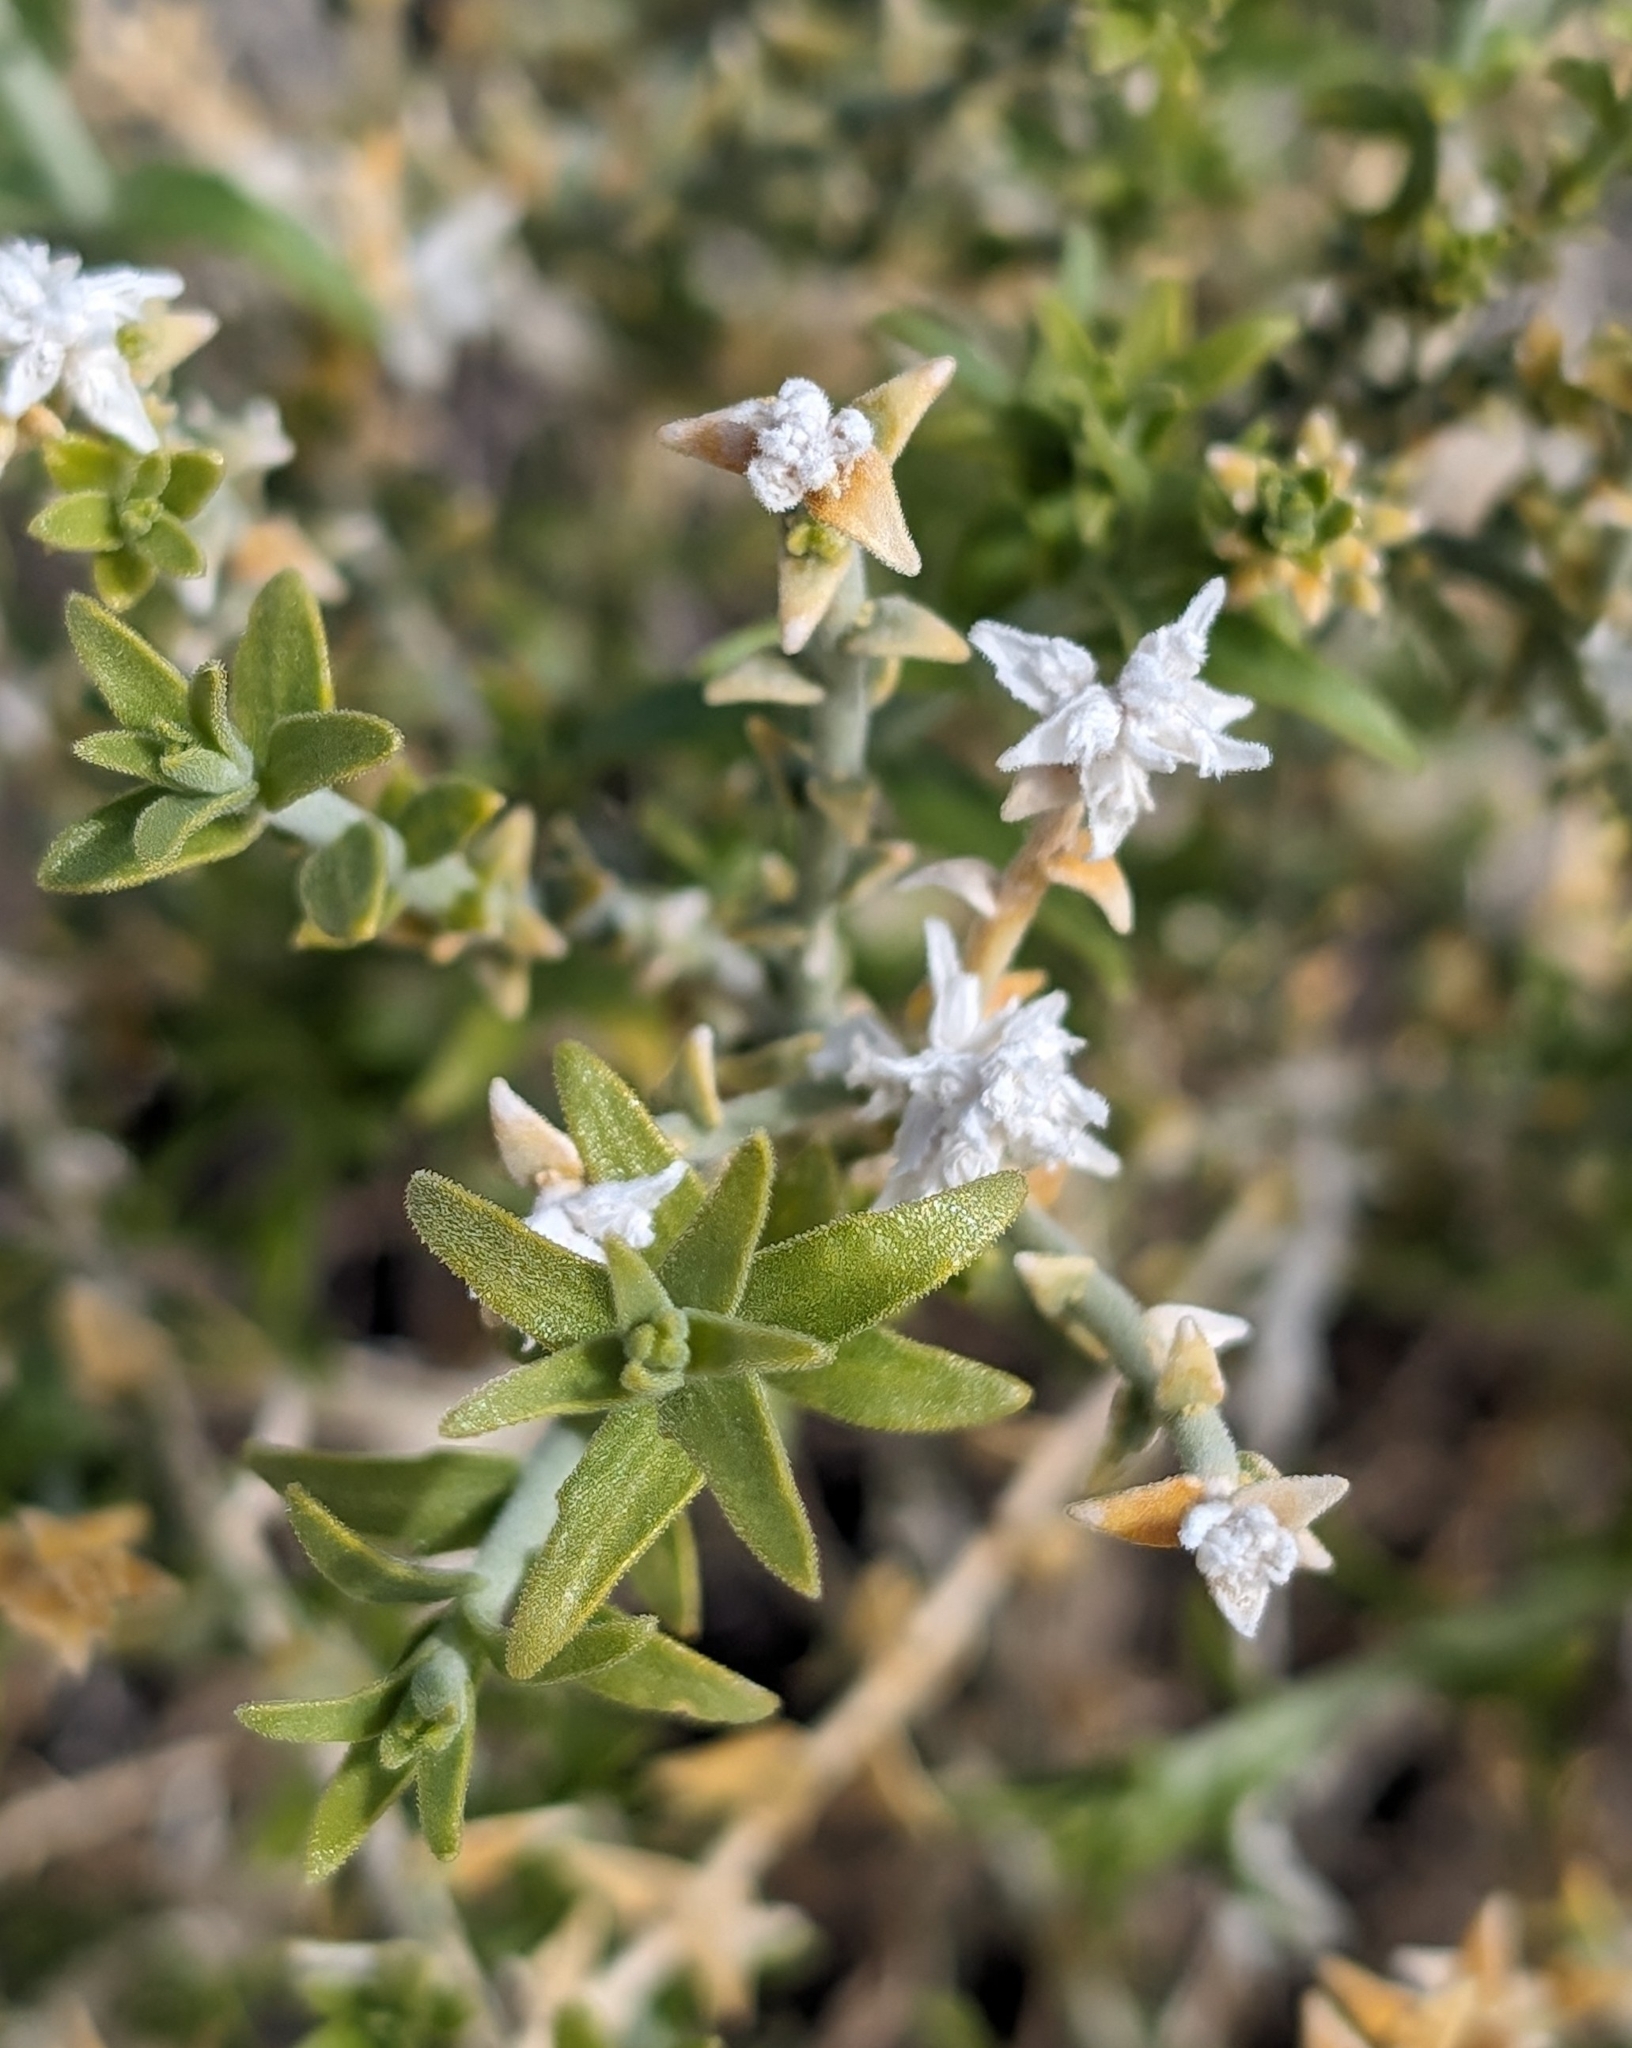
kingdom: Plantae
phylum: Tracheophyta
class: Magnoliopsida
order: Cornales
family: Loasaceae
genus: Petalonyx
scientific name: Petalonyx thurberi
